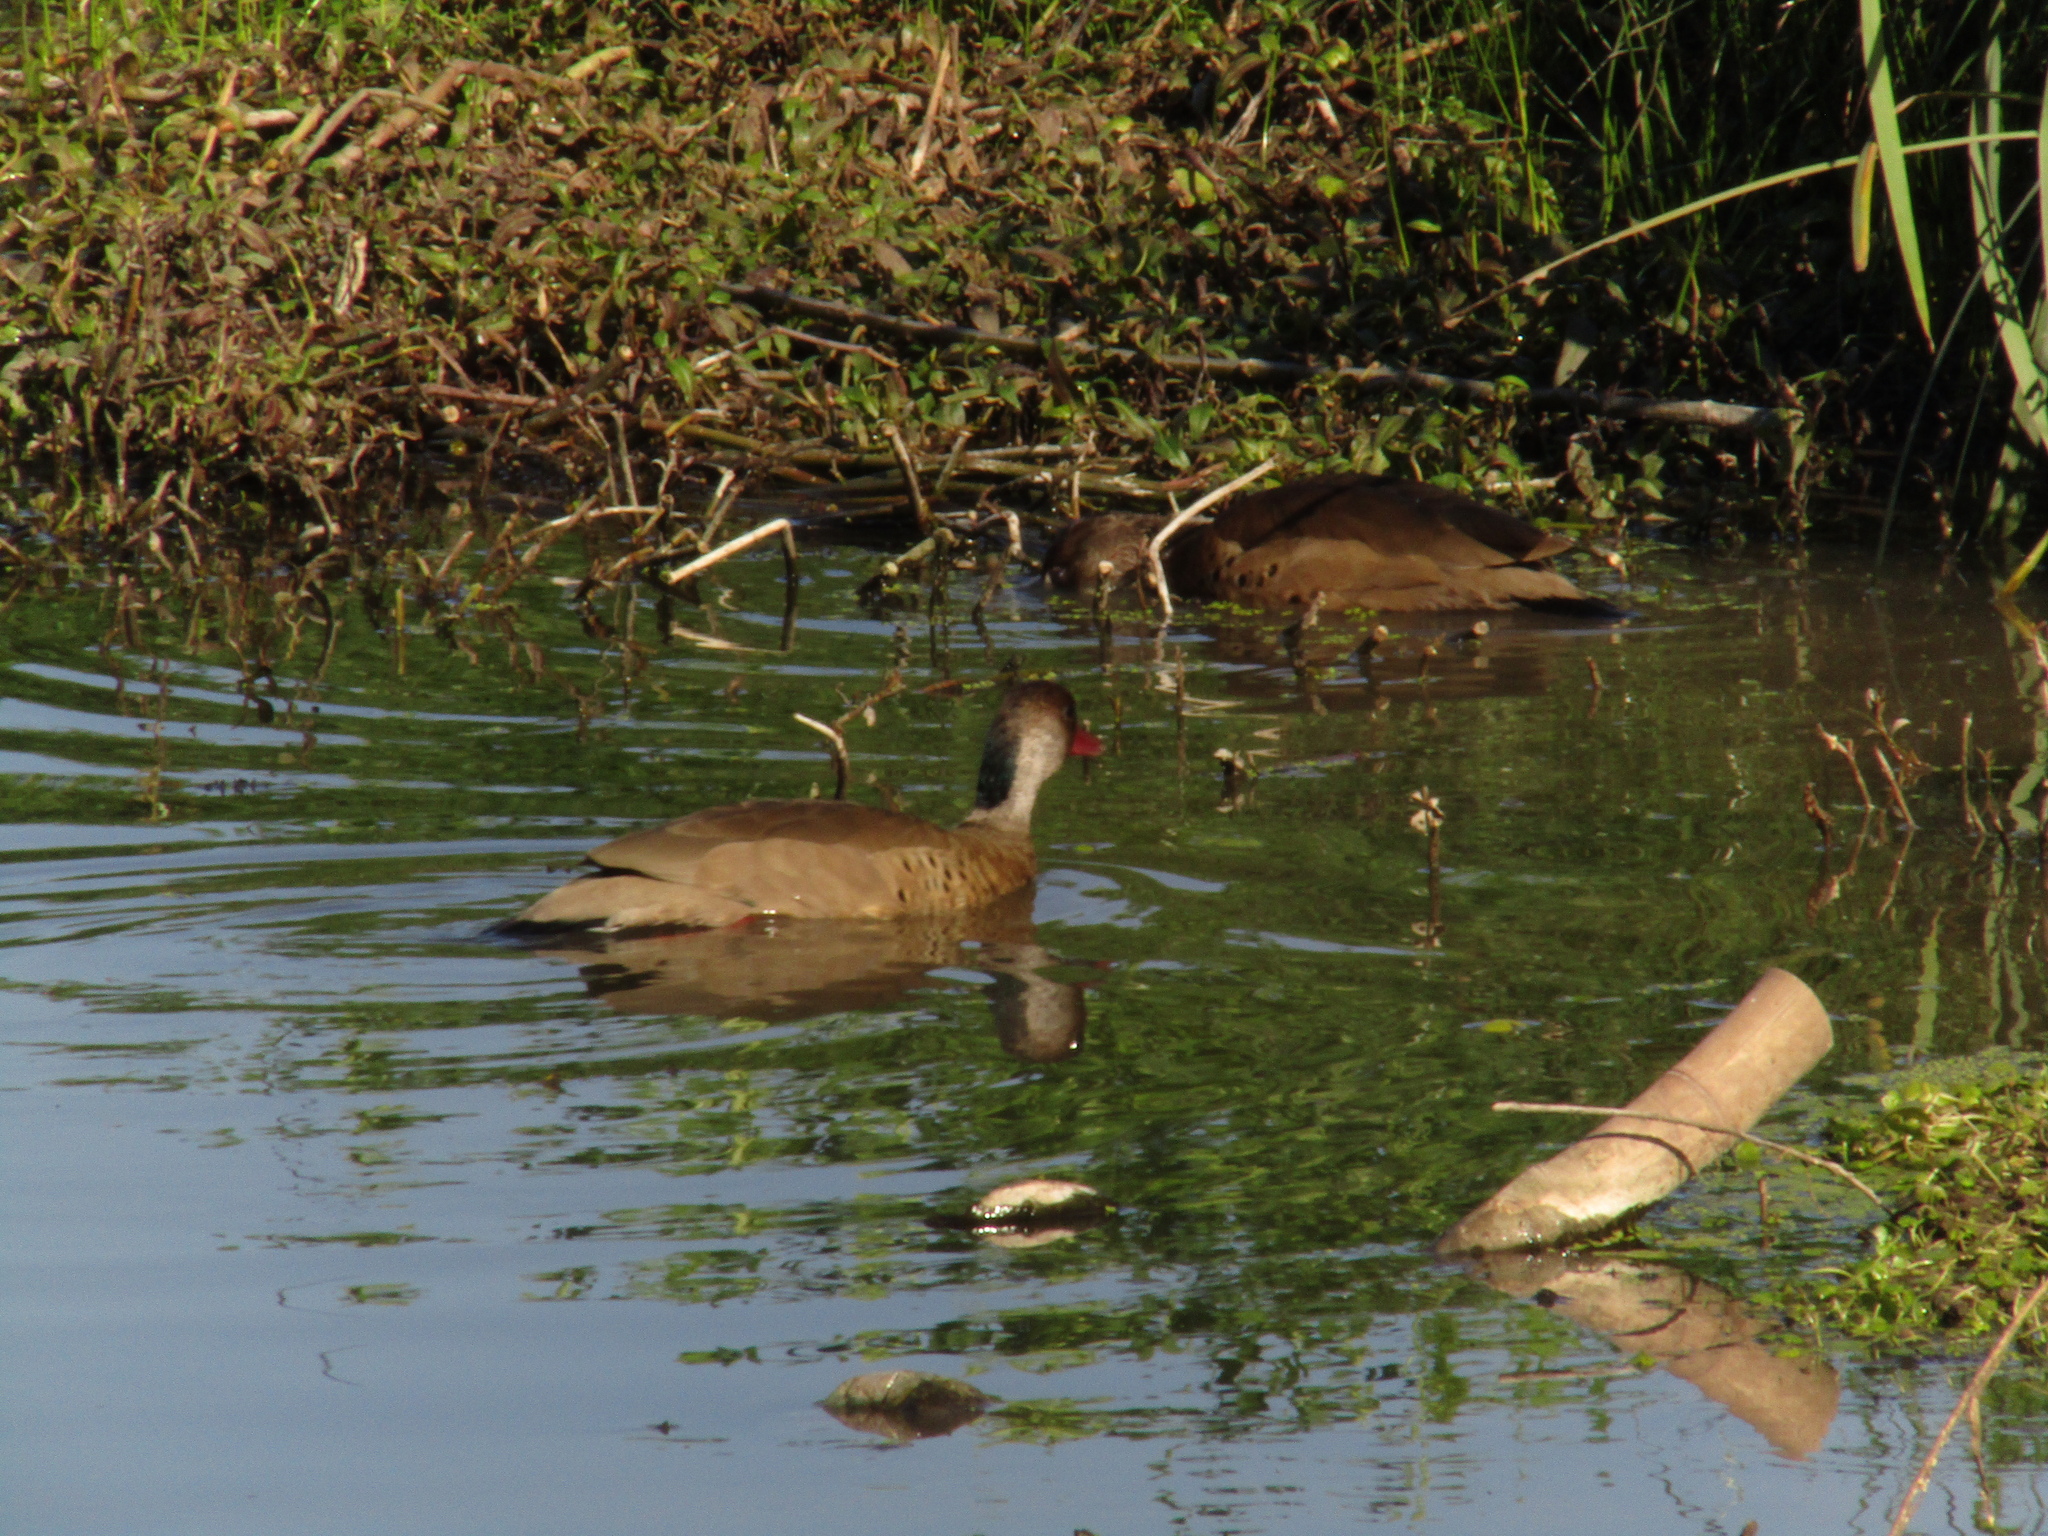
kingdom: Animalia
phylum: Chordata
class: Aves
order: Anseriformes
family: Anatidae
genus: Amazonetta
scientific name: Amazonetta brasiliensis
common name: Brazilian teal
